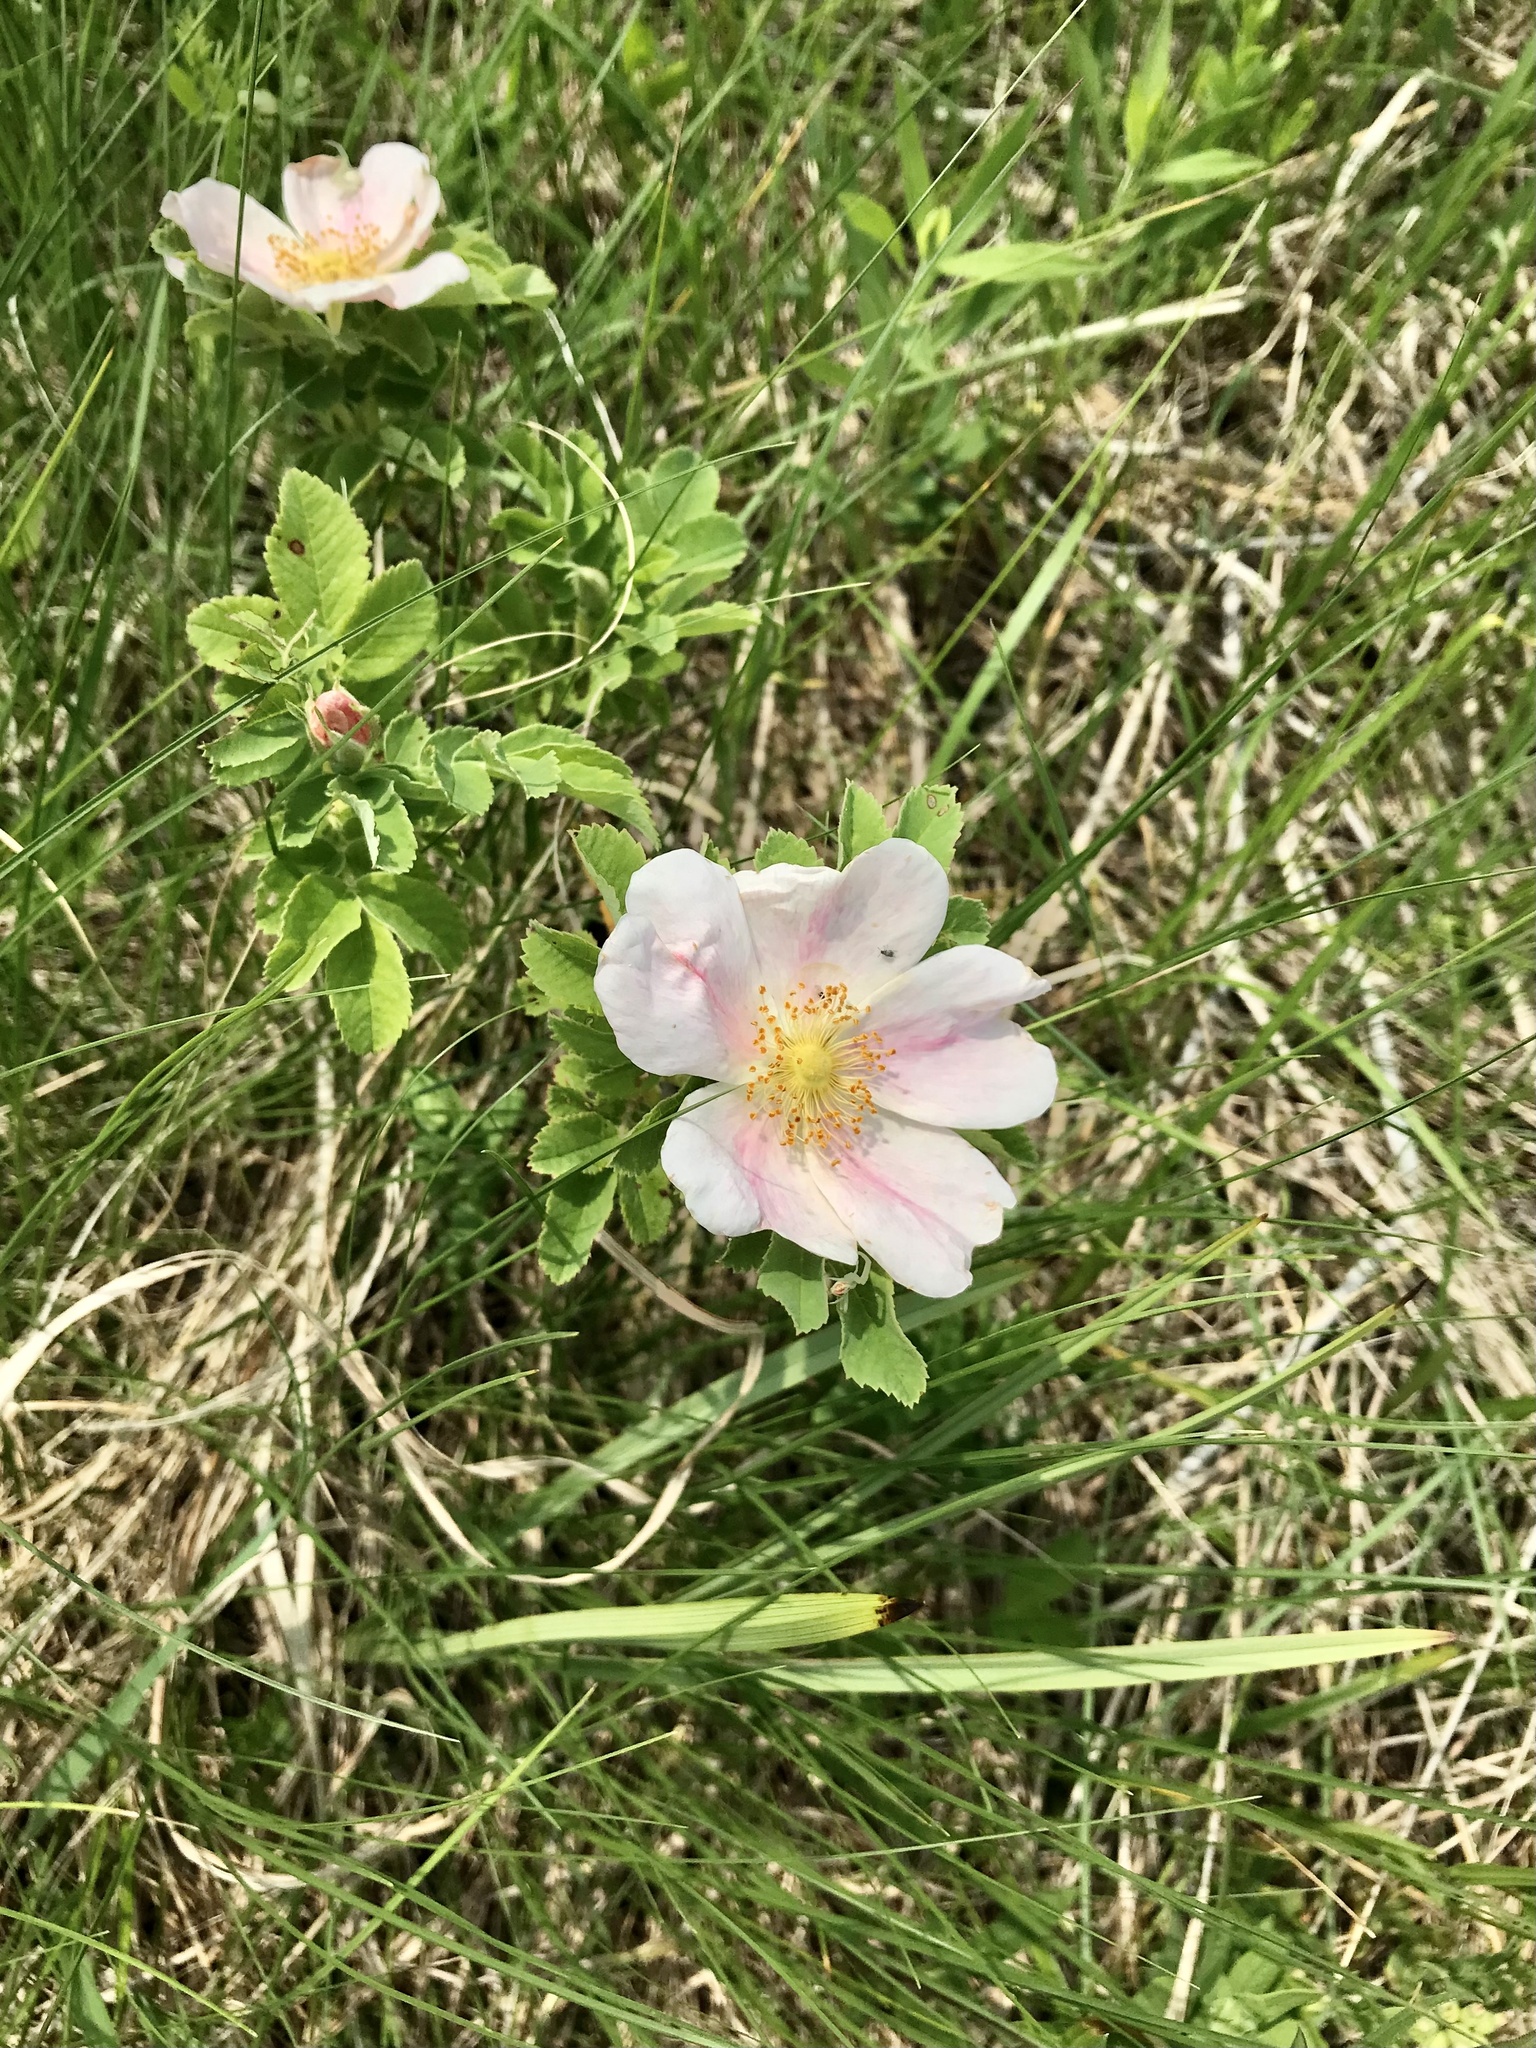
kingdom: Plantae
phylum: Tracheophyta
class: Magnoliopsida
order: Rosales
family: Rosaceae
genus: Rosa
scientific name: Rosa arkansana
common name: Prairie rose
